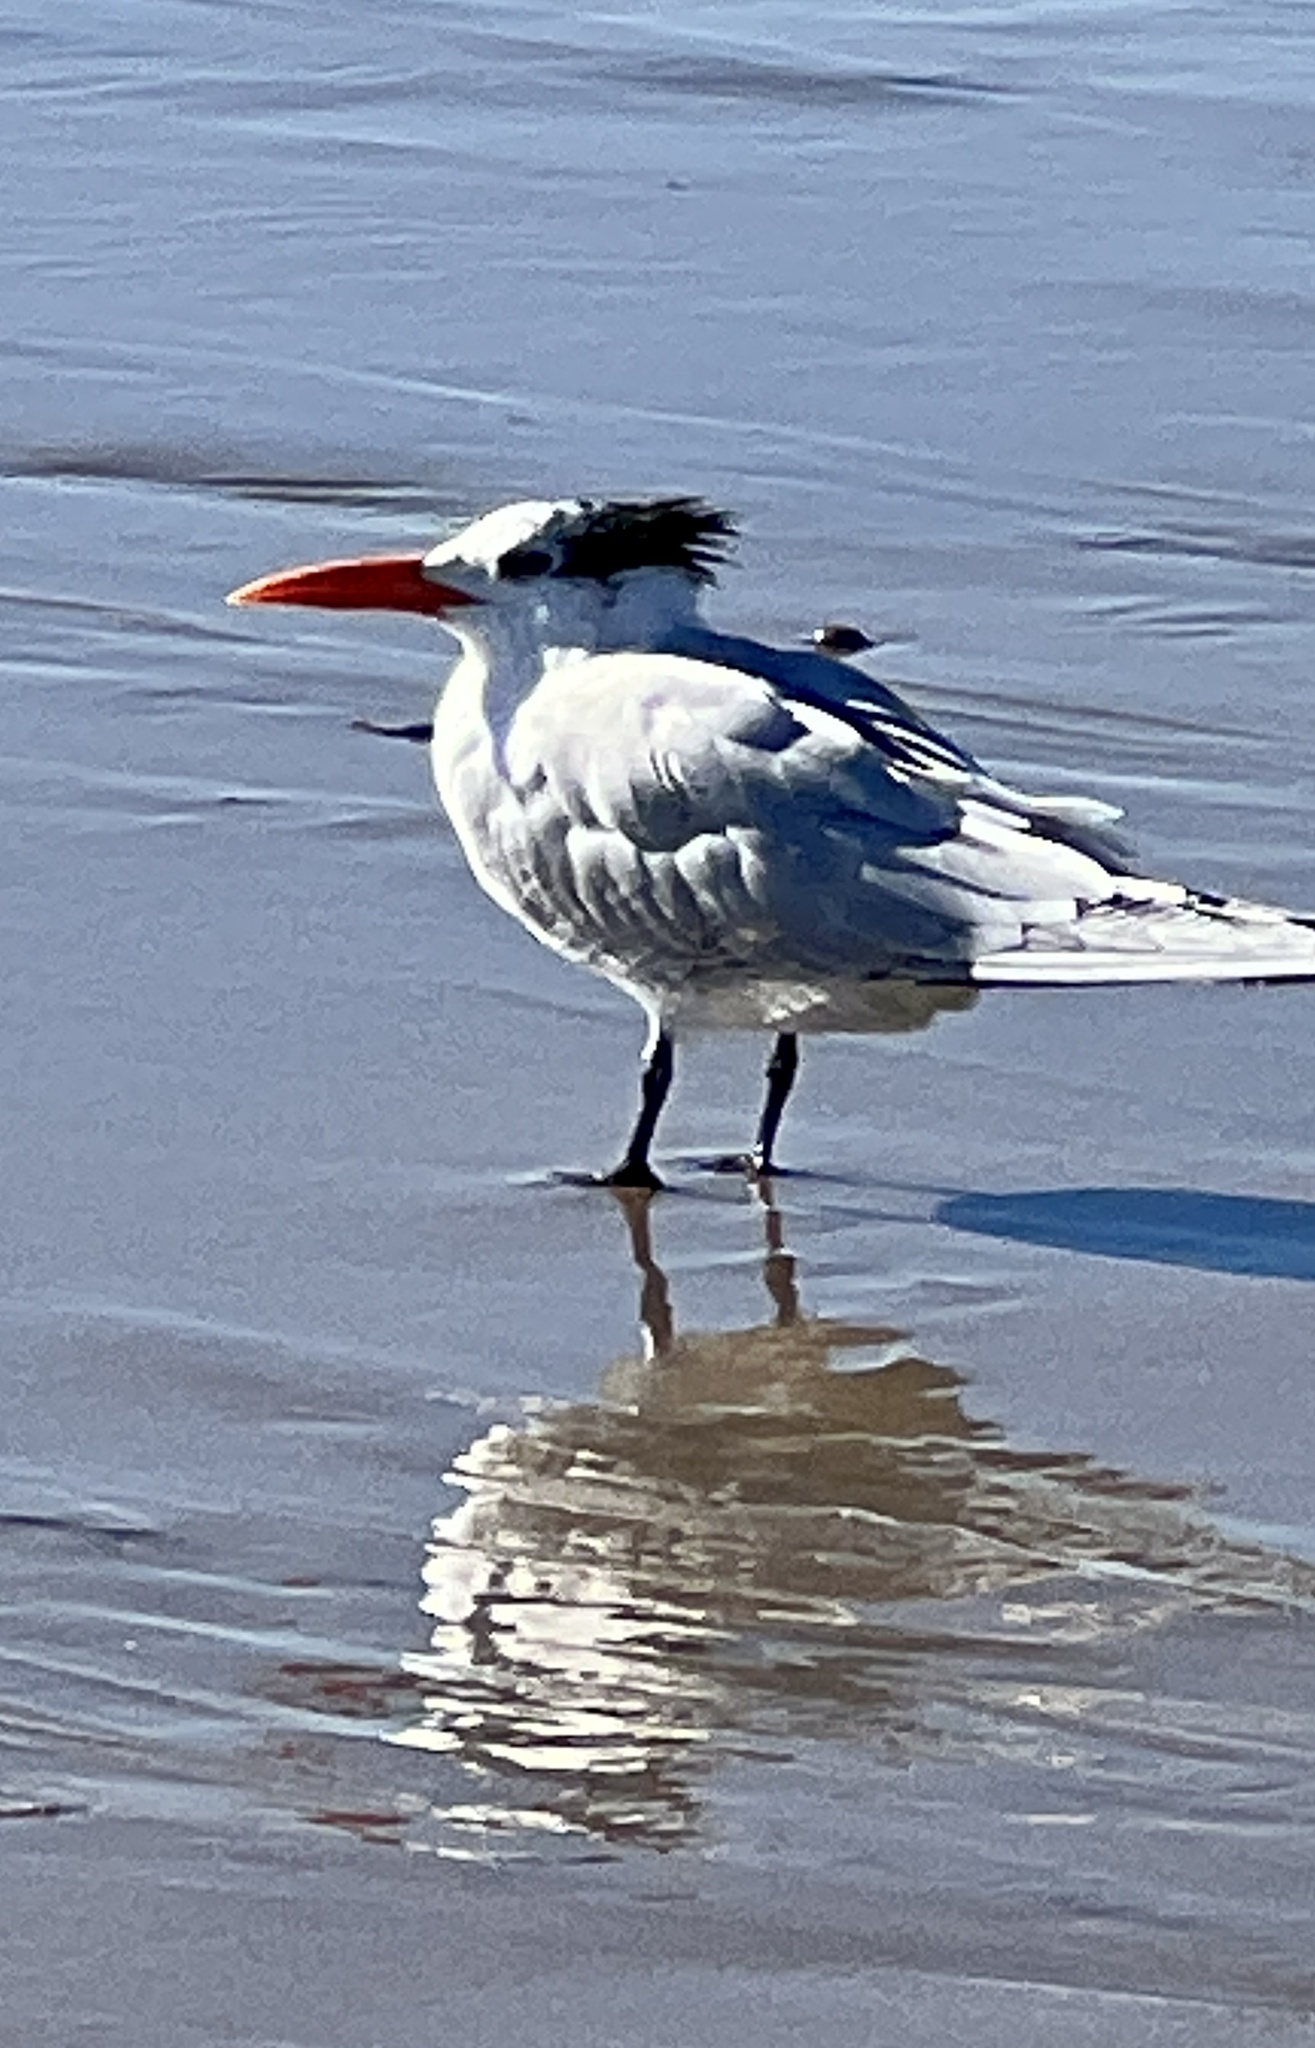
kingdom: Animalia
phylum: Chordata
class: Aves
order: Charadriiformes
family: Laridae
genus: Thalasseus
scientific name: Thalasseus maximus
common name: Royal tern
